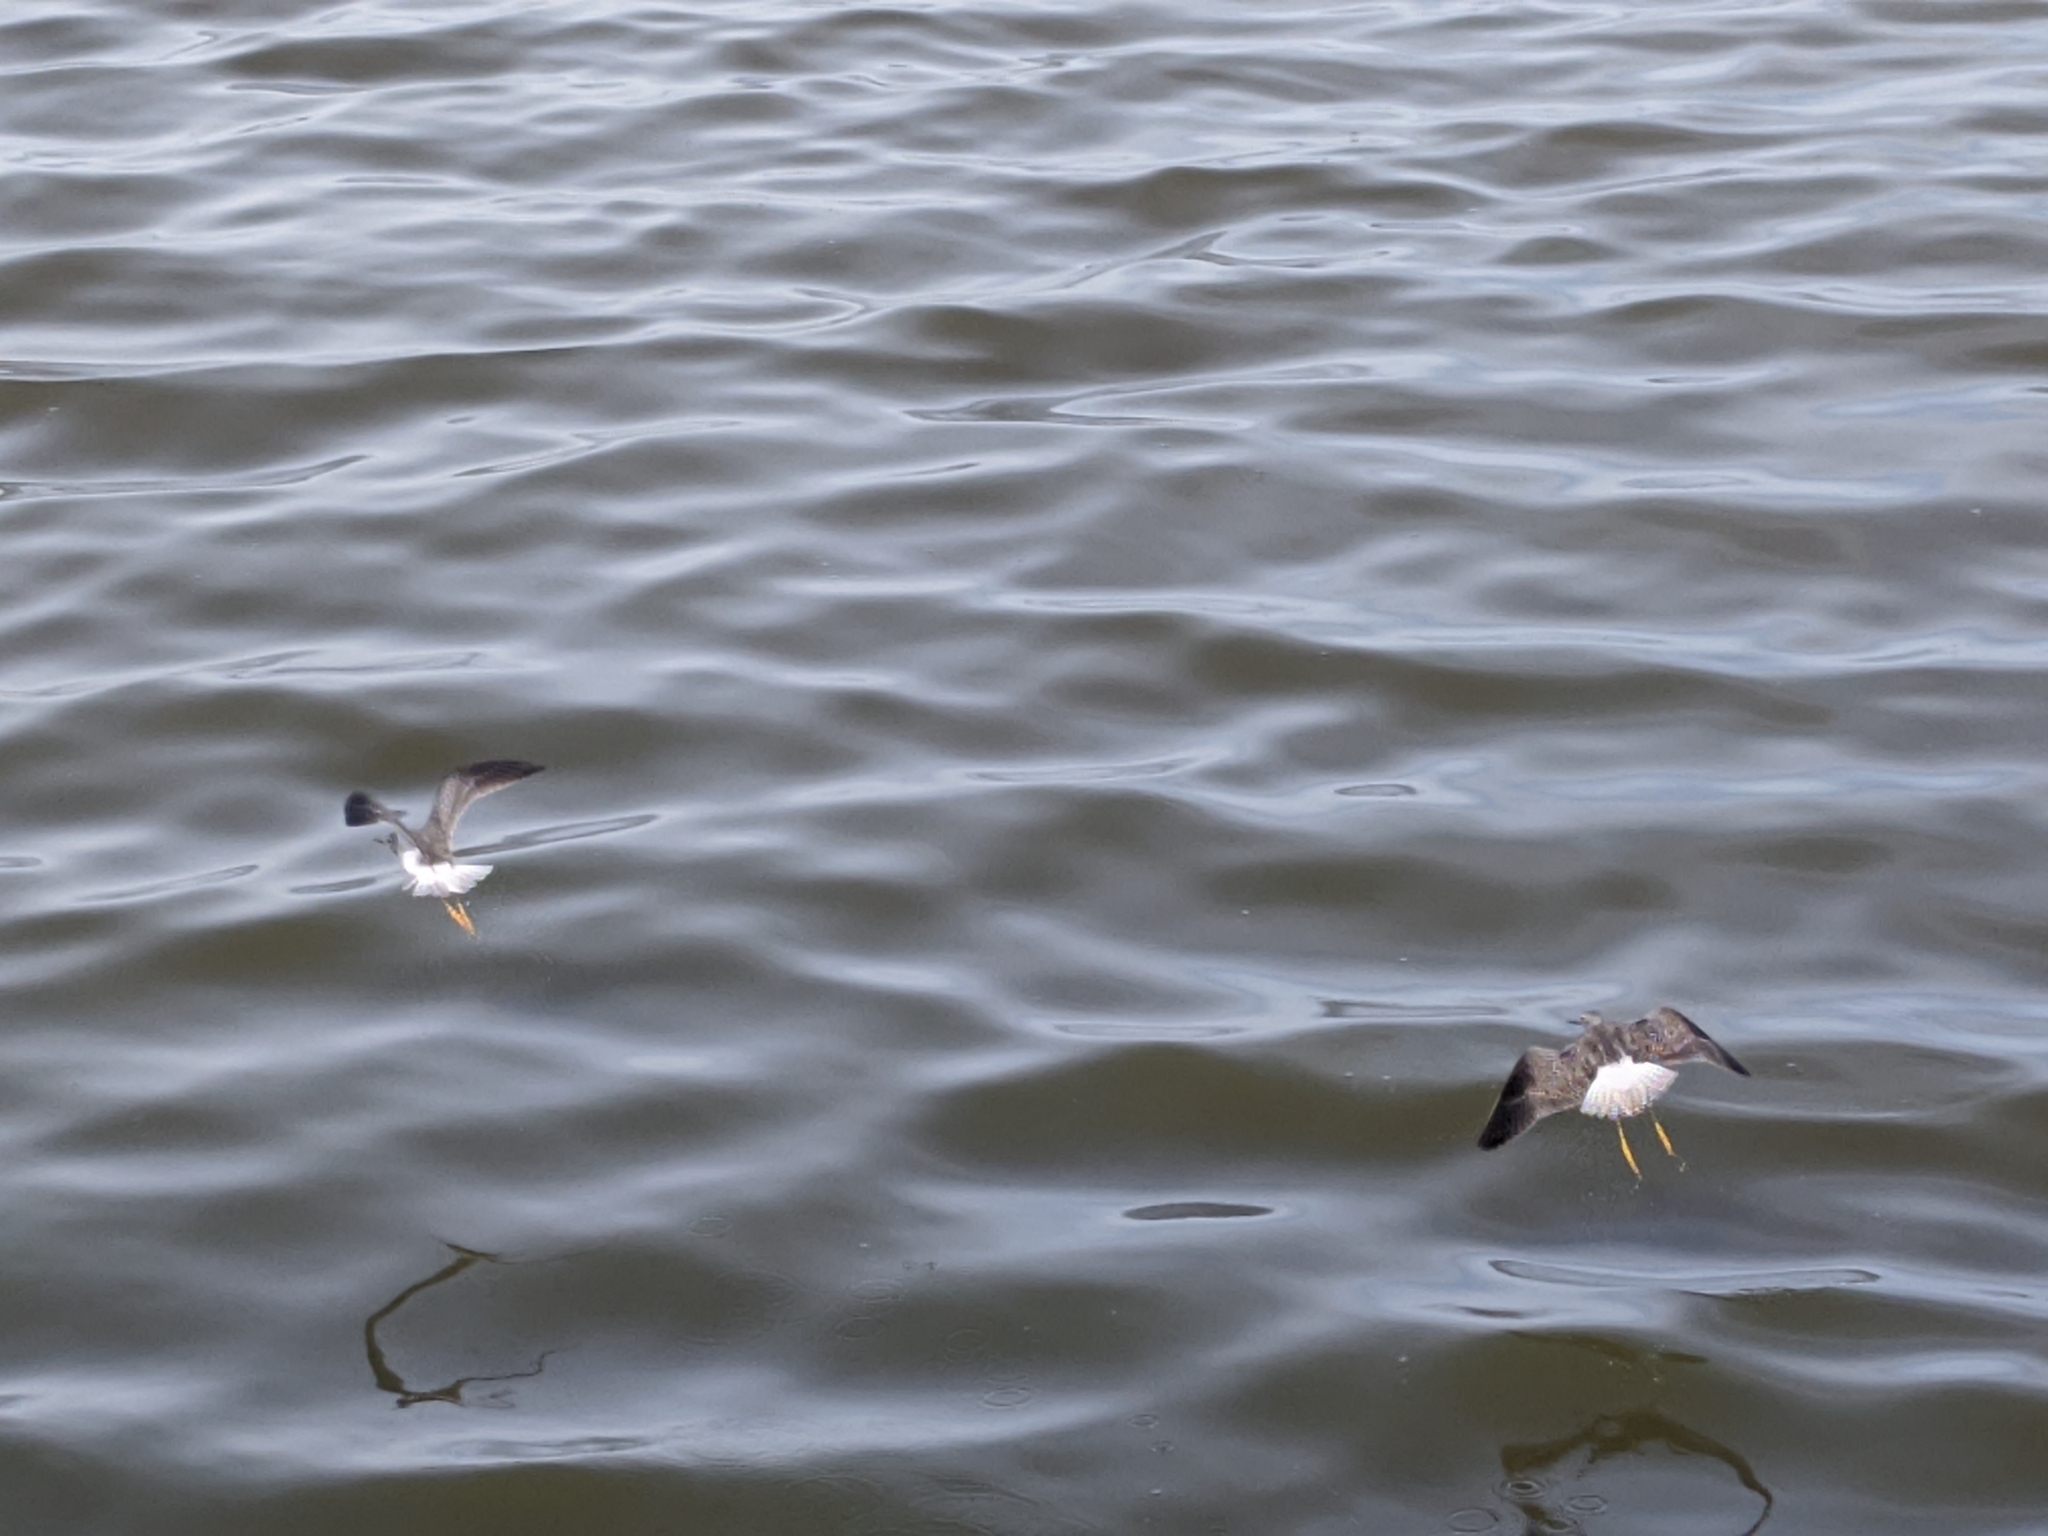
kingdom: Animalia
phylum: Chordata
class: Aves
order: Charadriiformes
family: Scolopacidae
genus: Tringa
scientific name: Tringa
